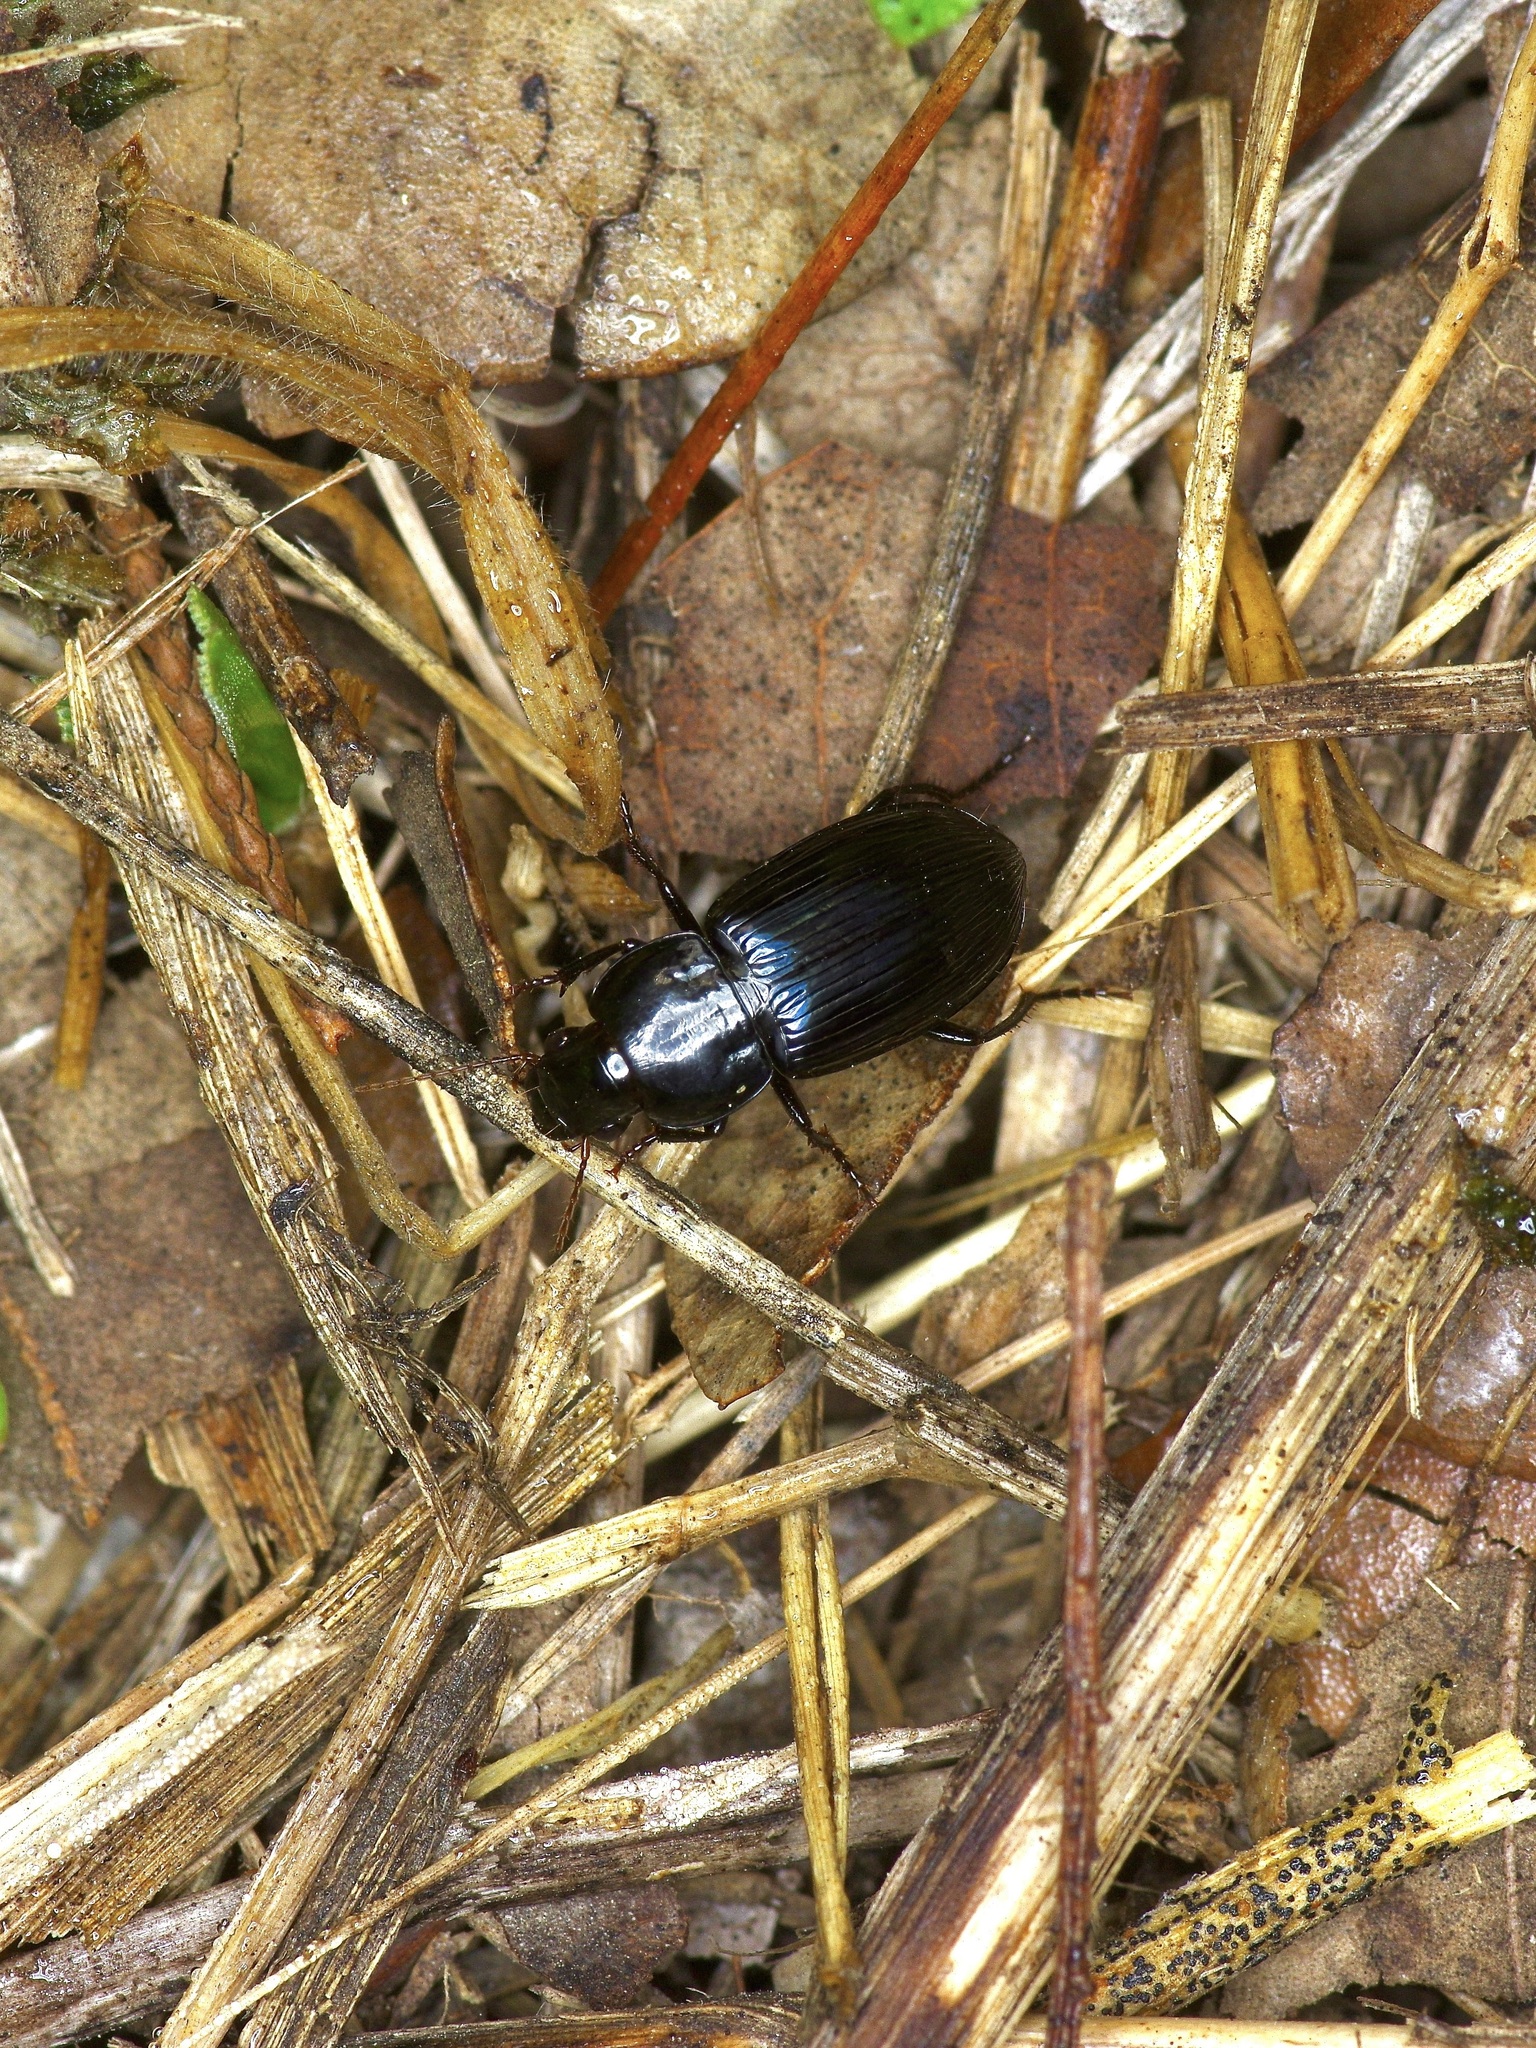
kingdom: Animalia
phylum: Arthropoda
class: Insecta
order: Coleoptera
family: Carabidae
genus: Aztecarpalus
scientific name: Aztecarpalus schaefferi
